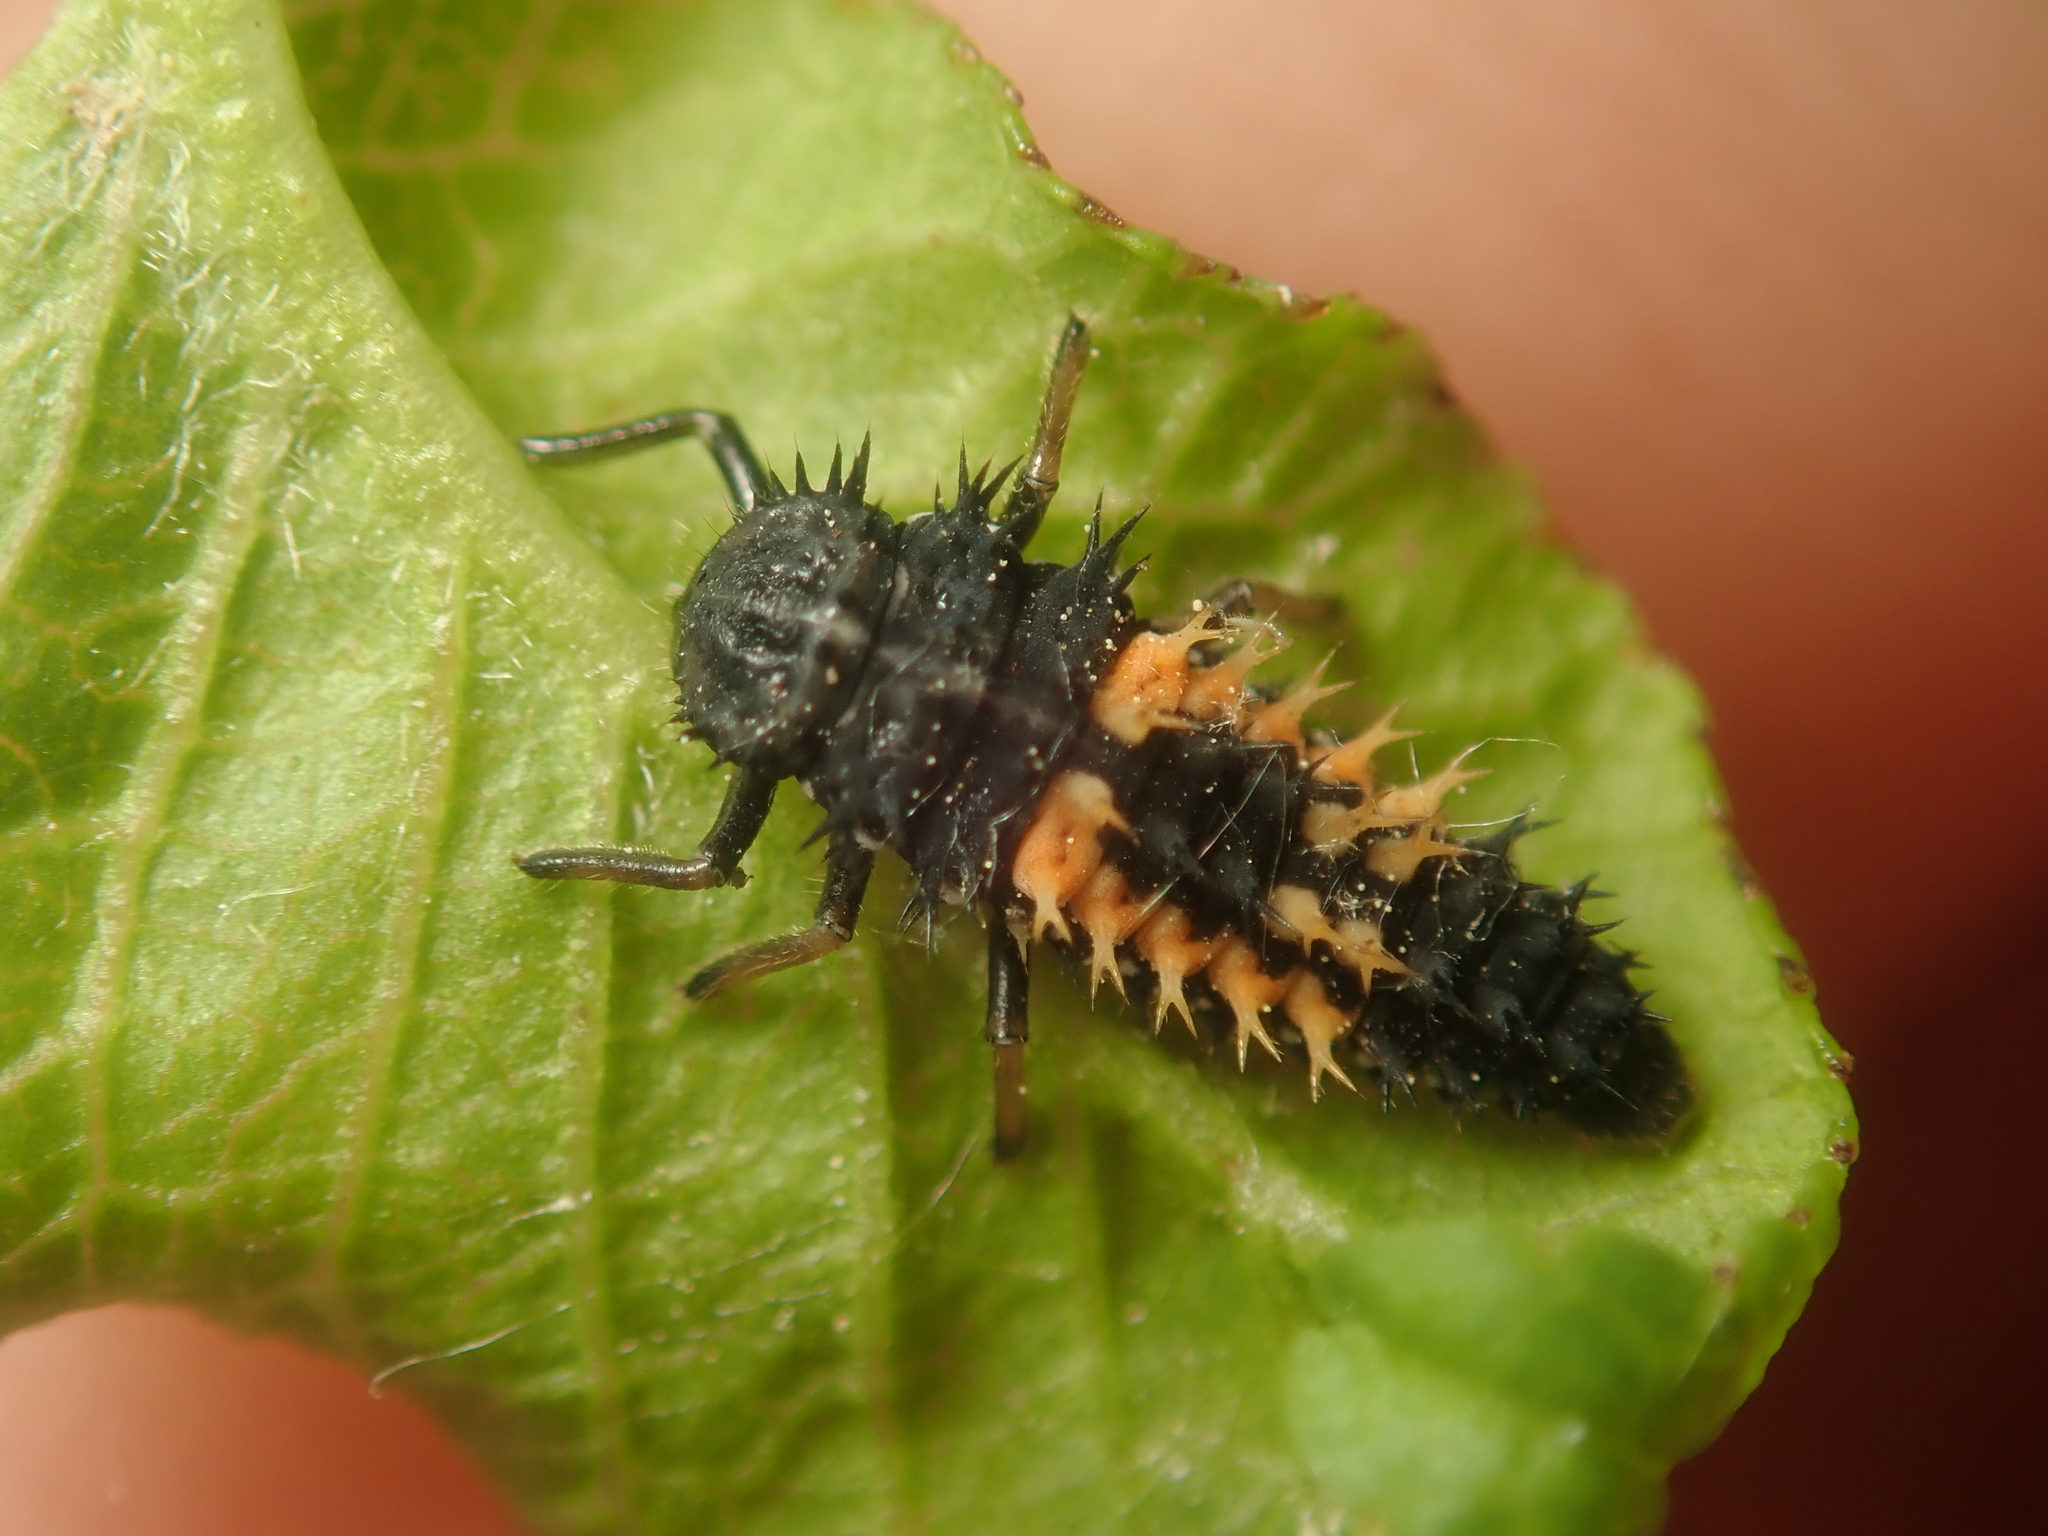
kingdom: Animalia
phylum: Arthropoda
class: Insecta
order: Coleoptera
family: Coccinellidae
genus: Harmonia
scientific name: Harmonia axyridis
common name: Harlequin ladybird
